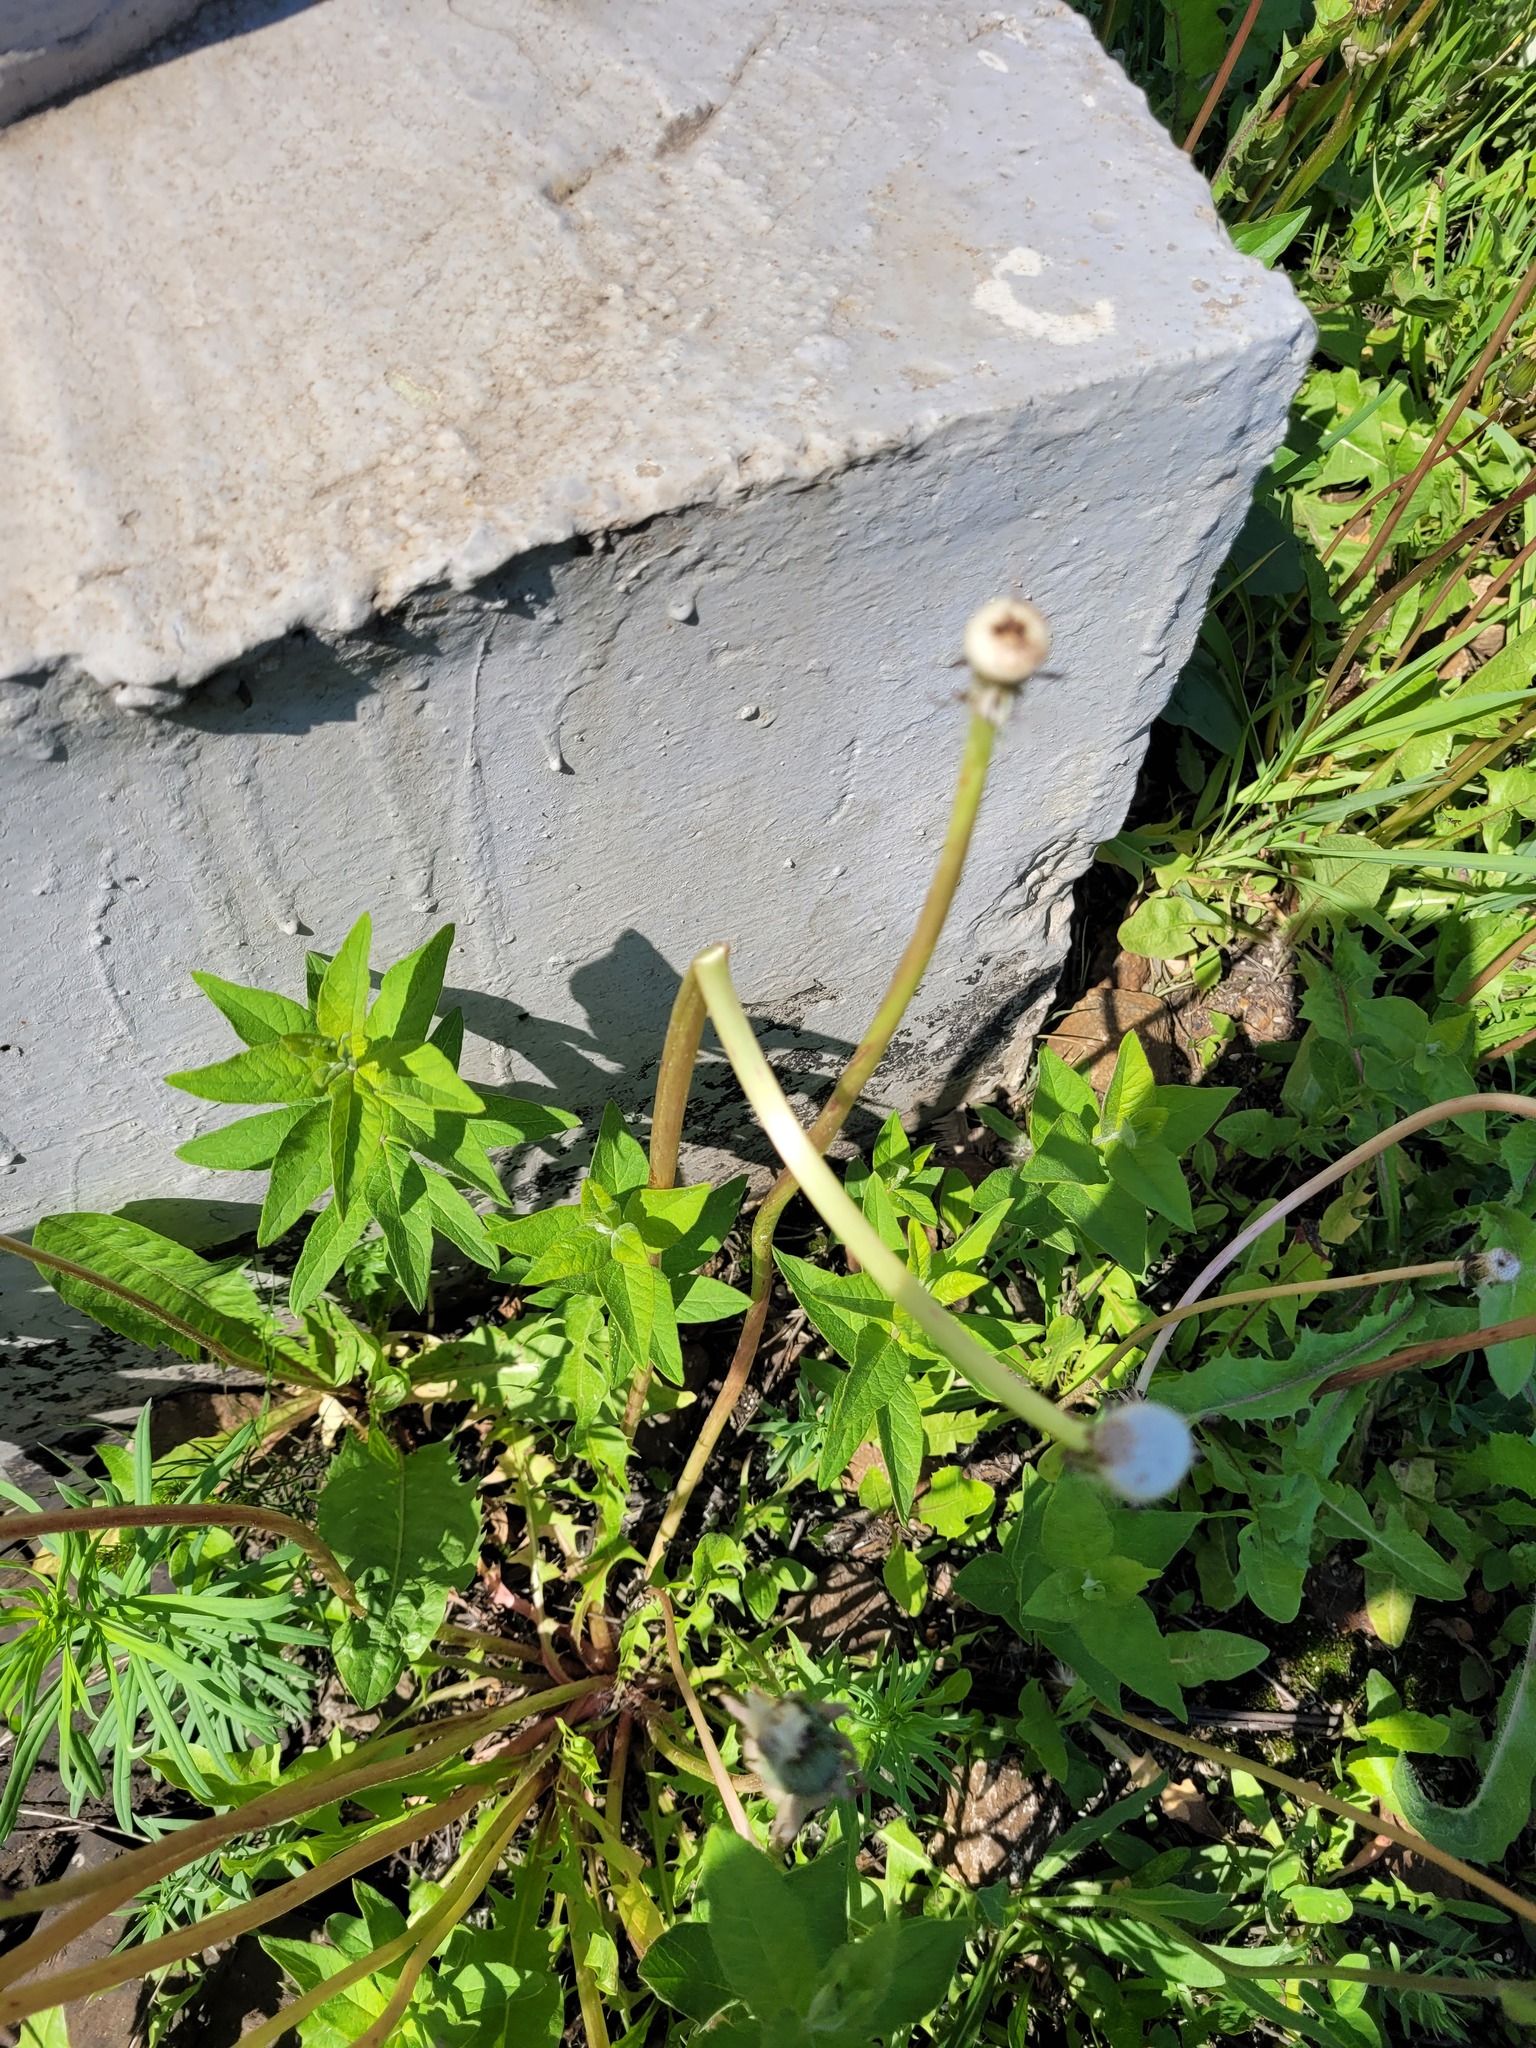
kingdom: Plantae
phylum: Tracheophyta
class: Magnoliopsida
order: Ericales
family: Primulaceae
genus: Lysimachia
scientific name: Lysimachia vulgaris
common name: Yellow loosestrife
